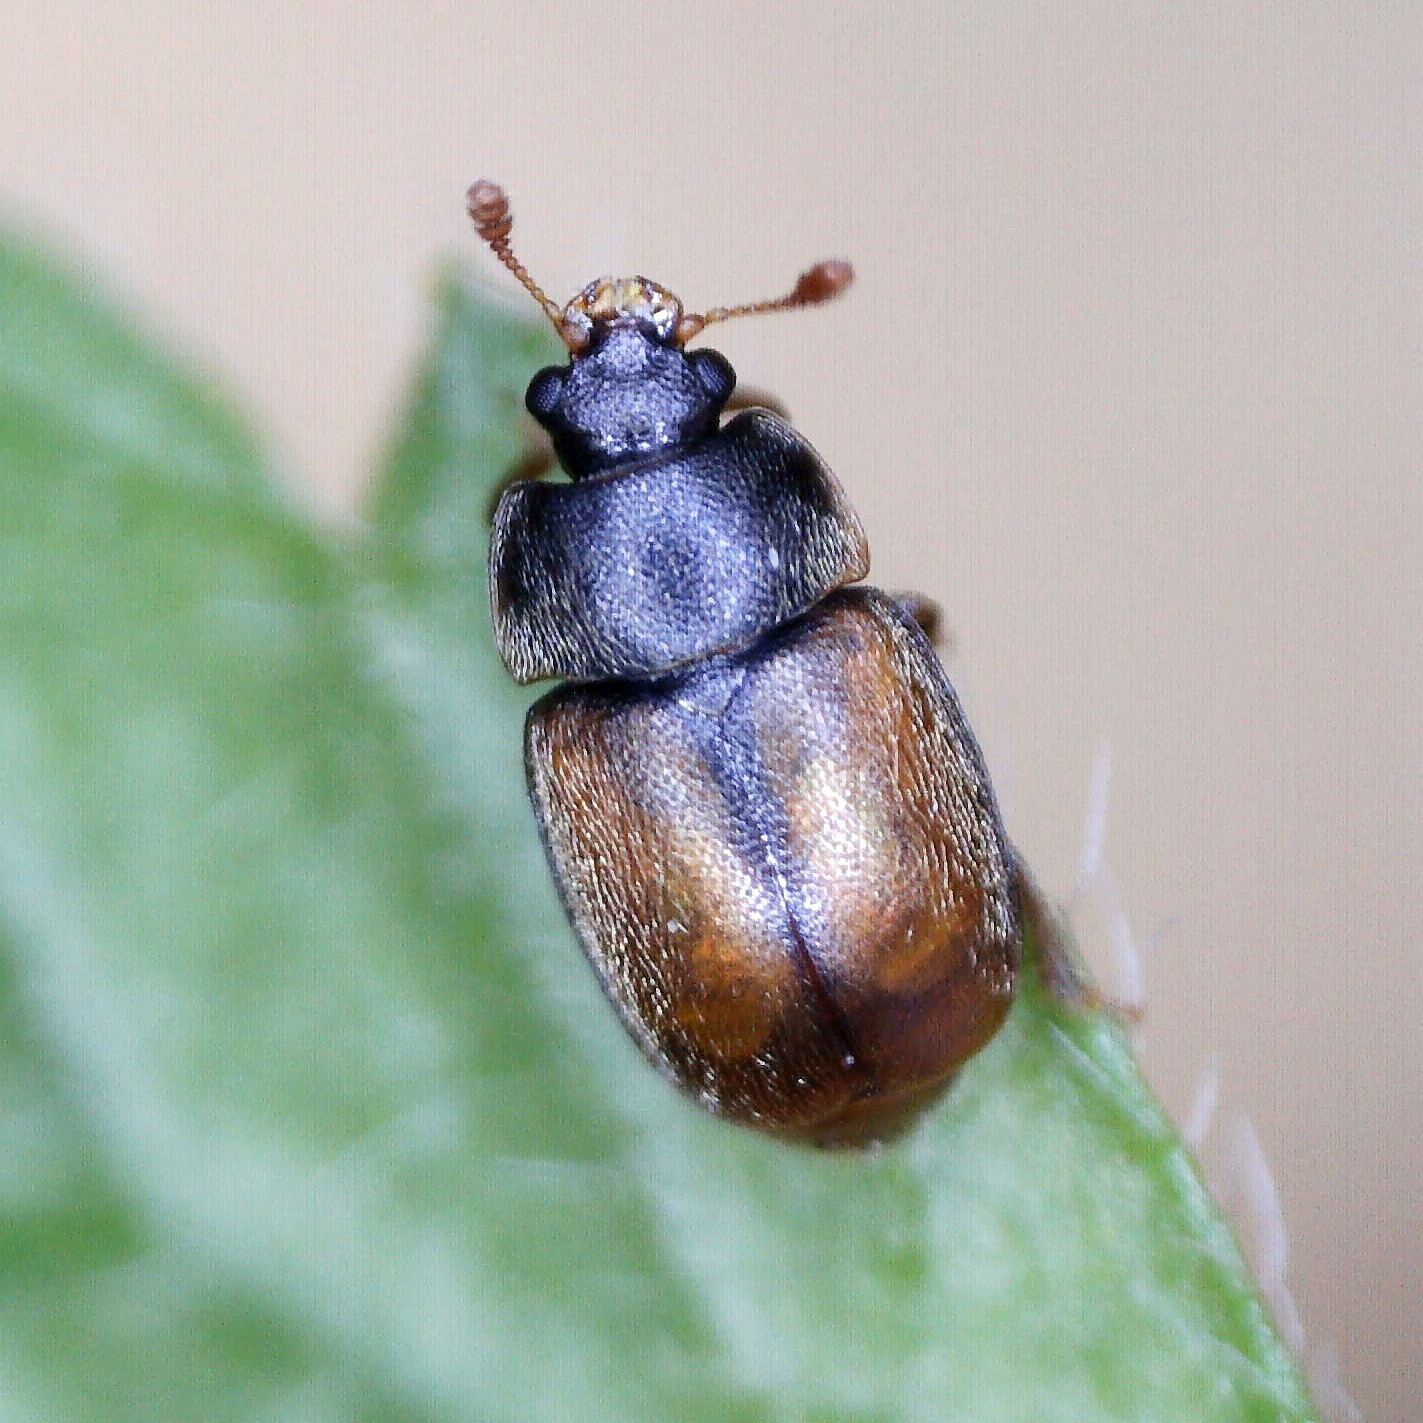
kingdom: Animalia
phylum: Arthropoda
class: Insecta
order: Coleoptera
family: Nitidulidae
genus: Epuraea
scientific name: Epuraea melanocephala
